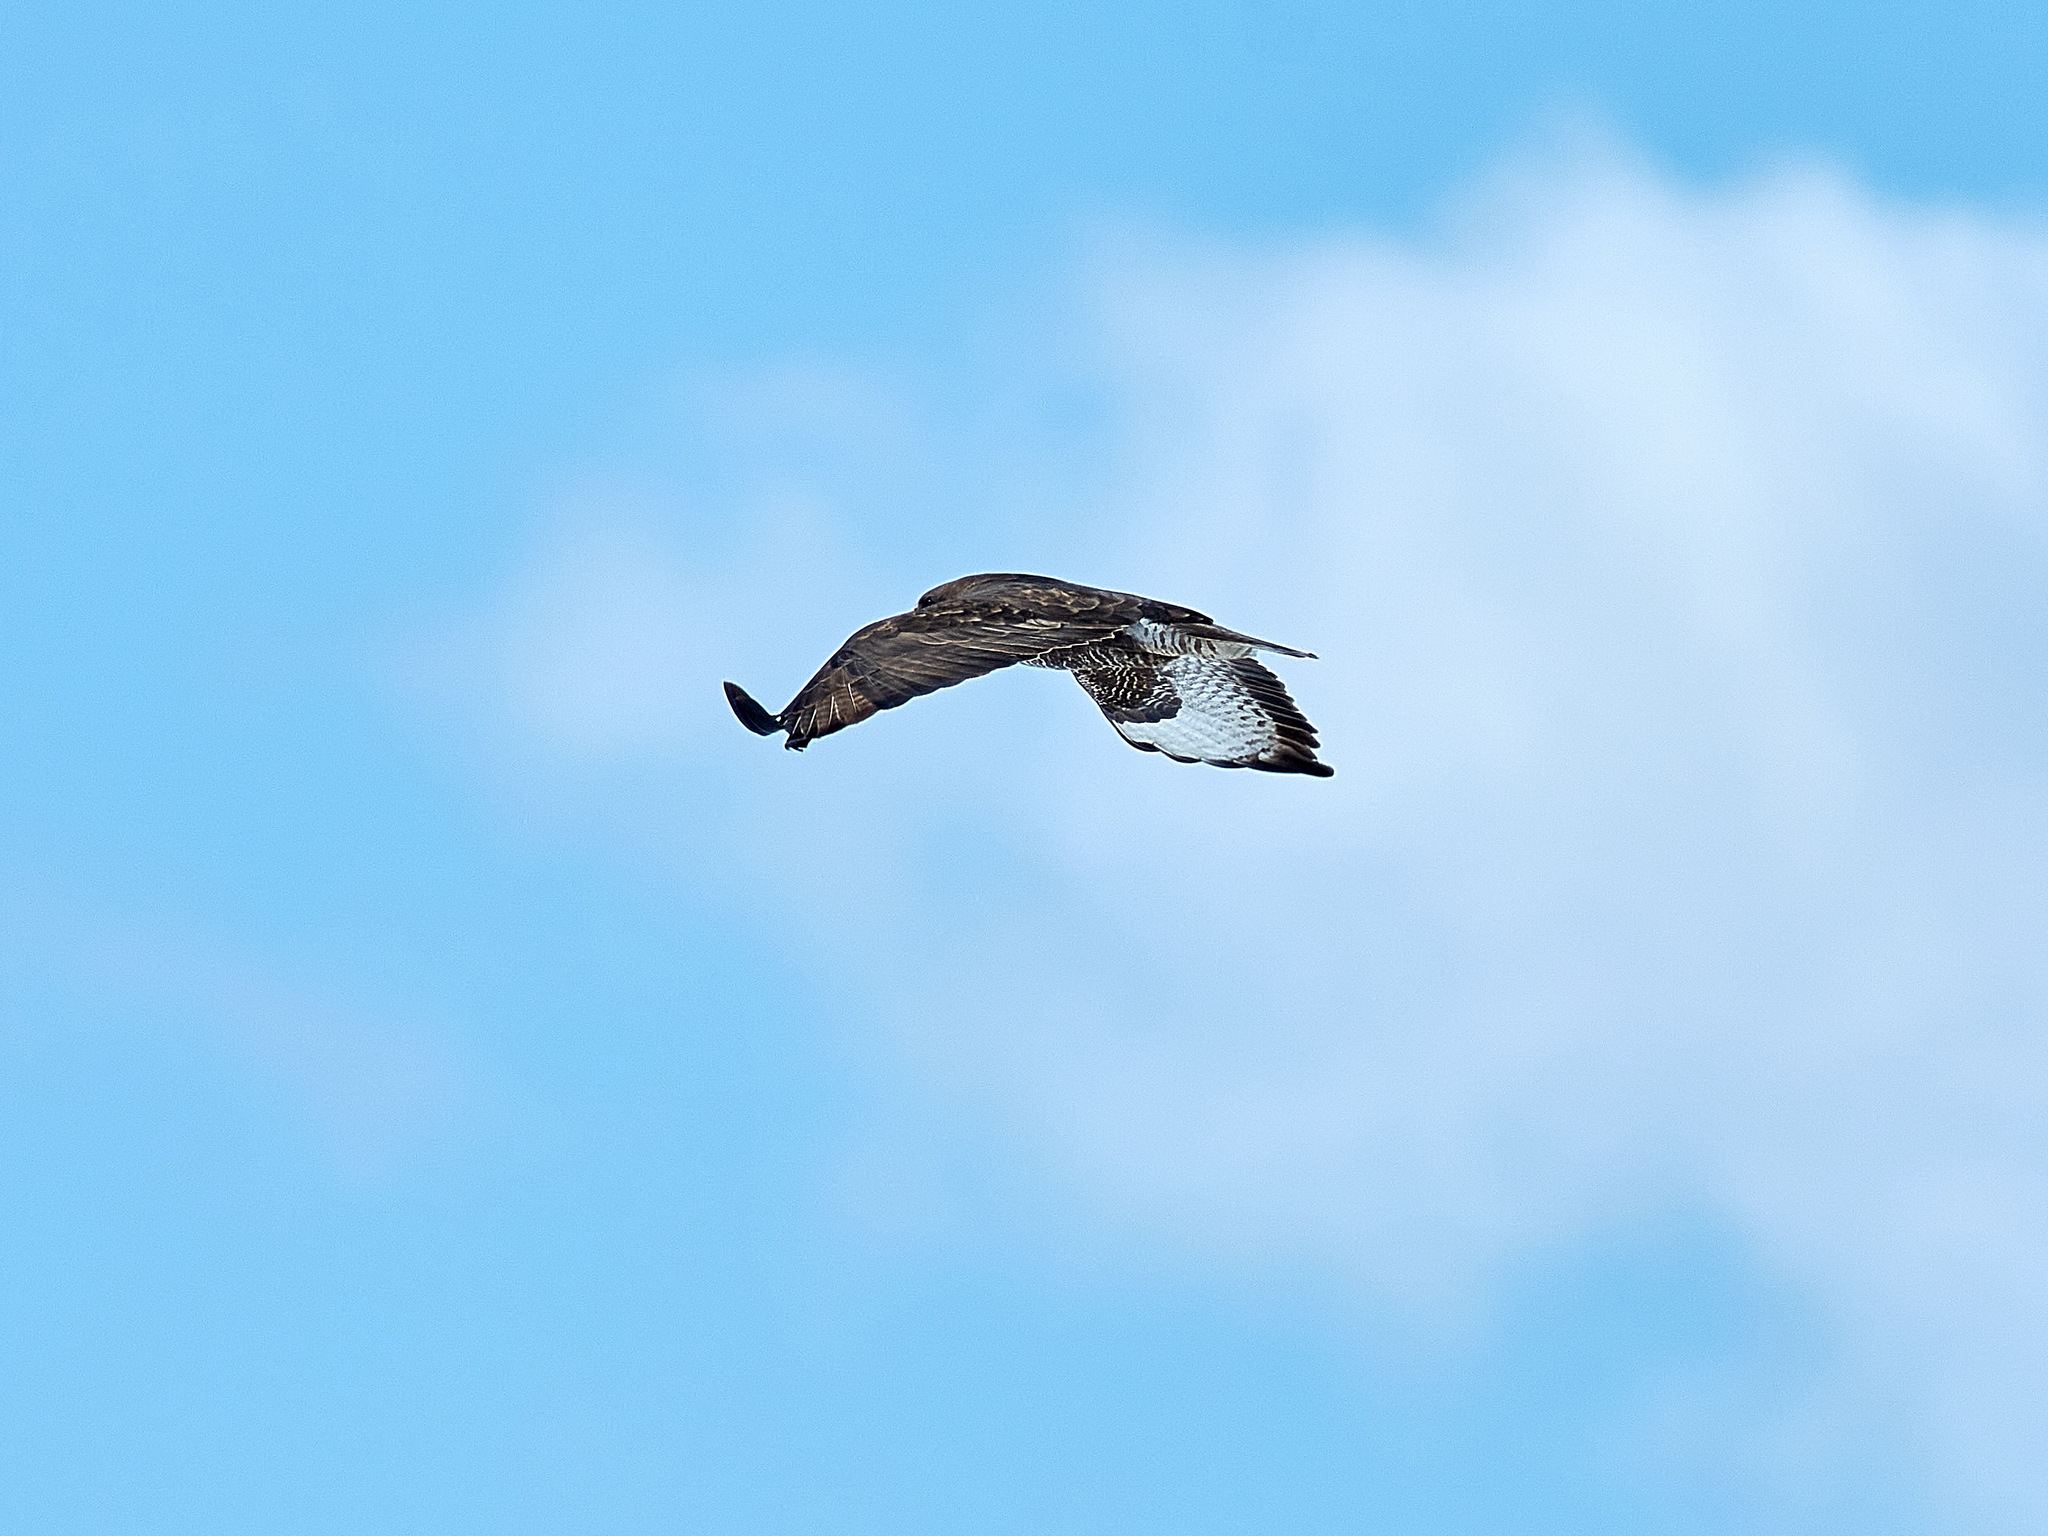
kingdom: Animalia
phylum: Chordata
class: Aves
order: Accipitriformes
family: Accipitridae
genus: Buteo
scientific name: Buteo buteo
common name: Common buzzard
